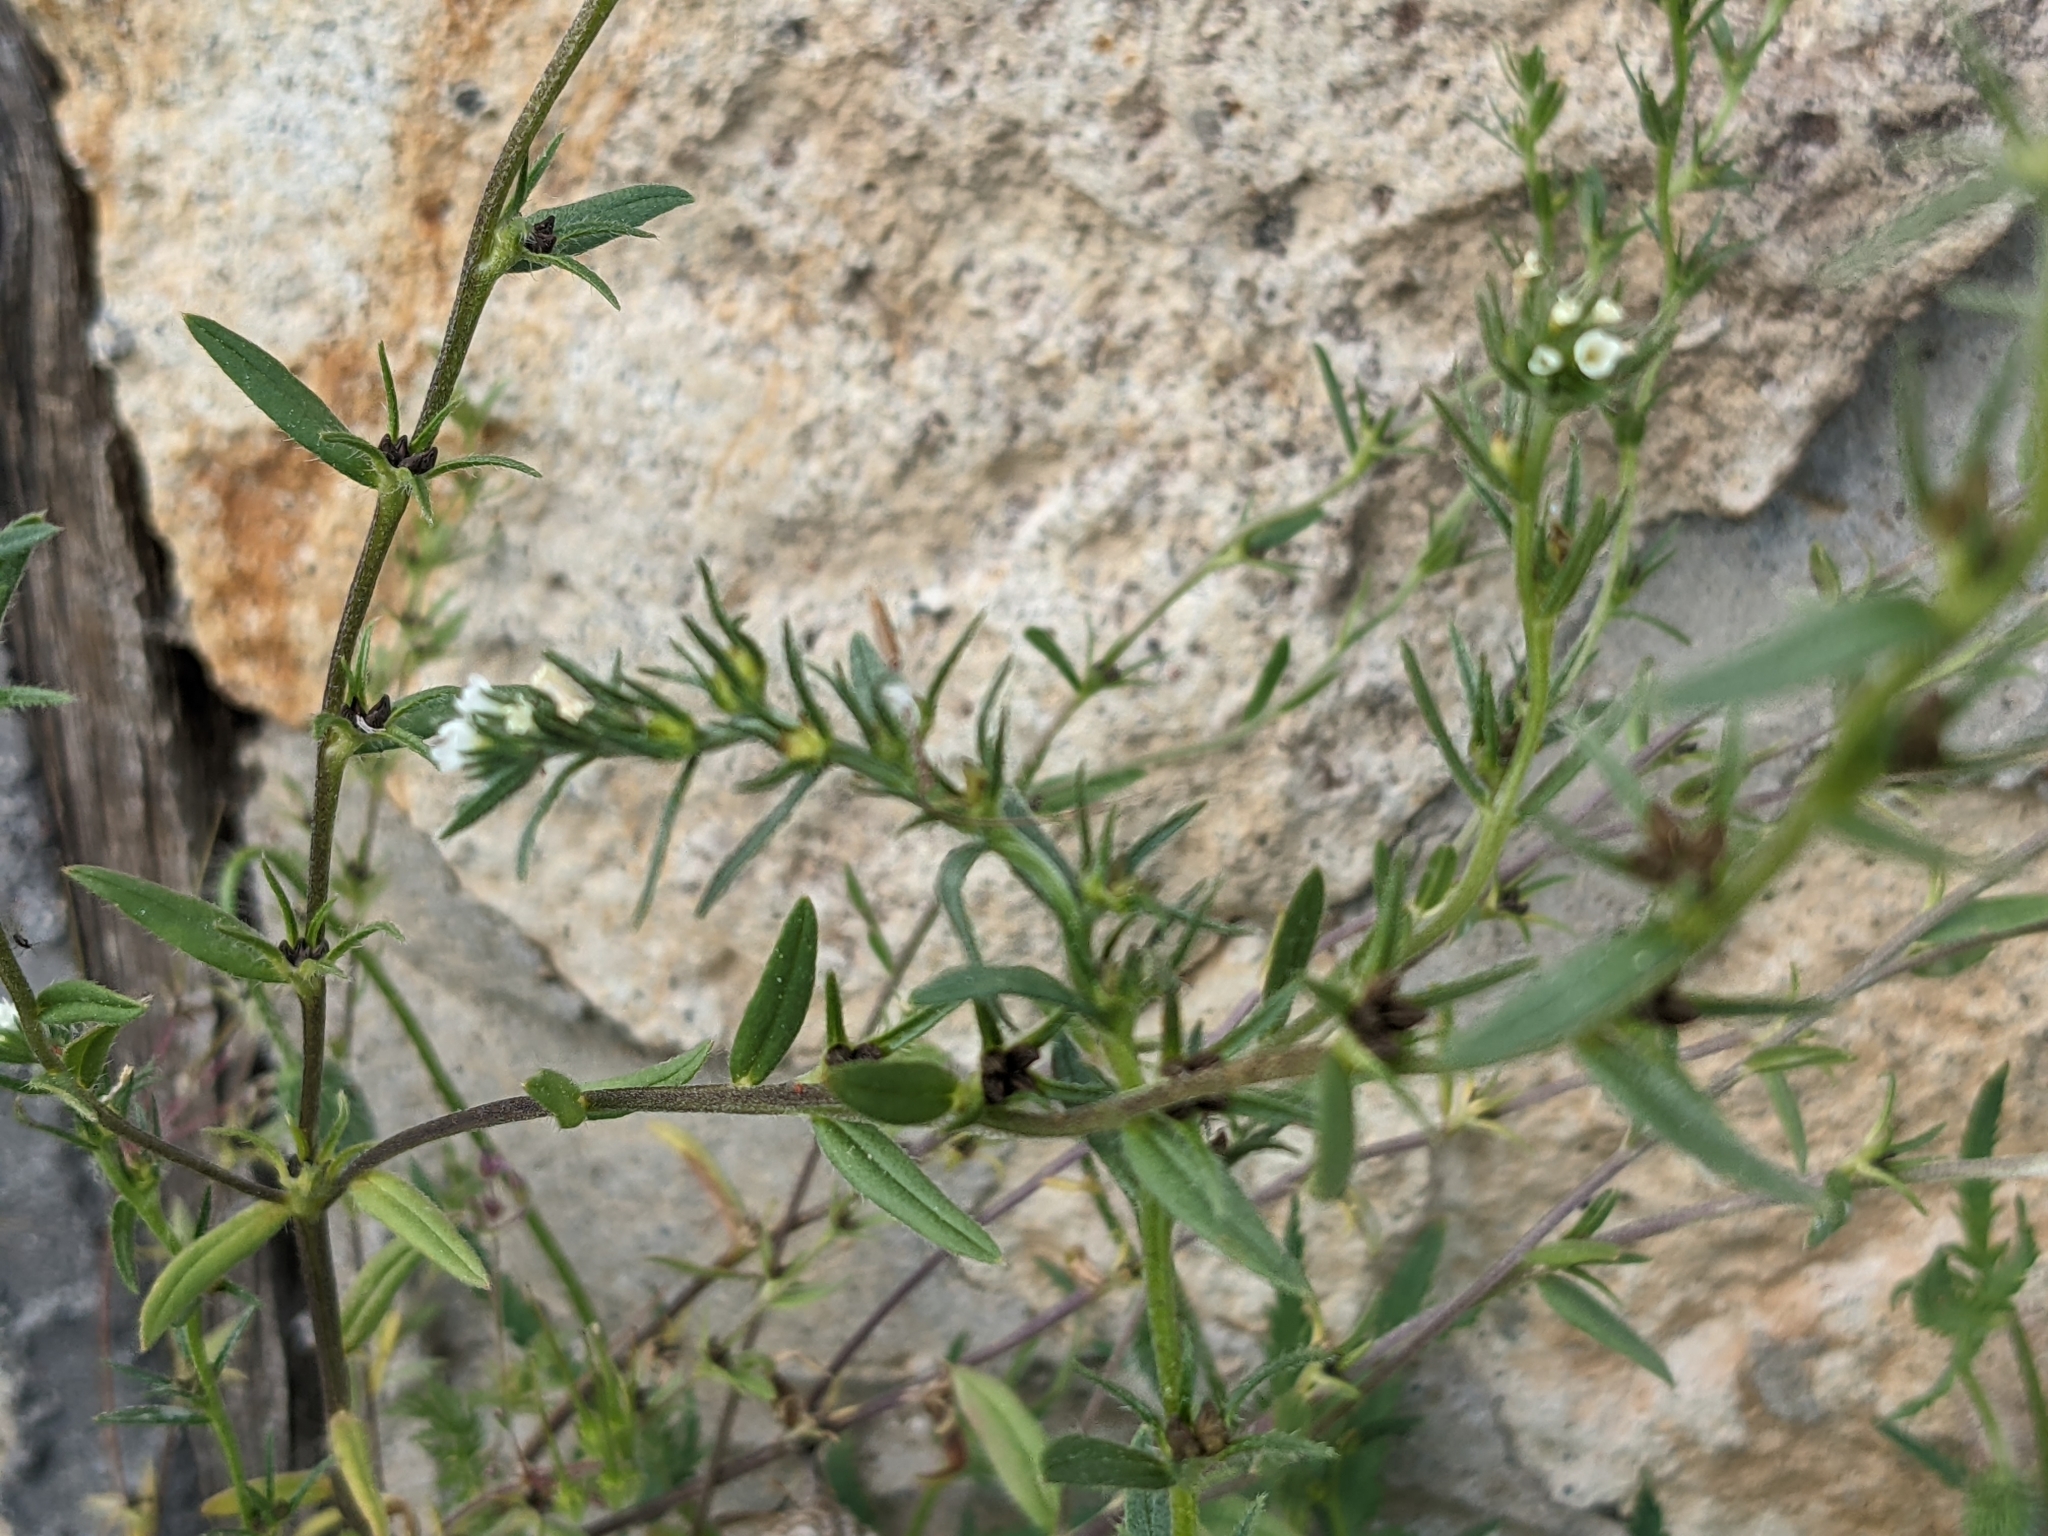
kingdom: Plantae
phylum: Tracheophyta
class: Magnoliopsida
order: Boraginales
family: Boraginaceae
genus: Buglossoides
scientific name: Buglossoides arvensis
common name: Corn gromwell
